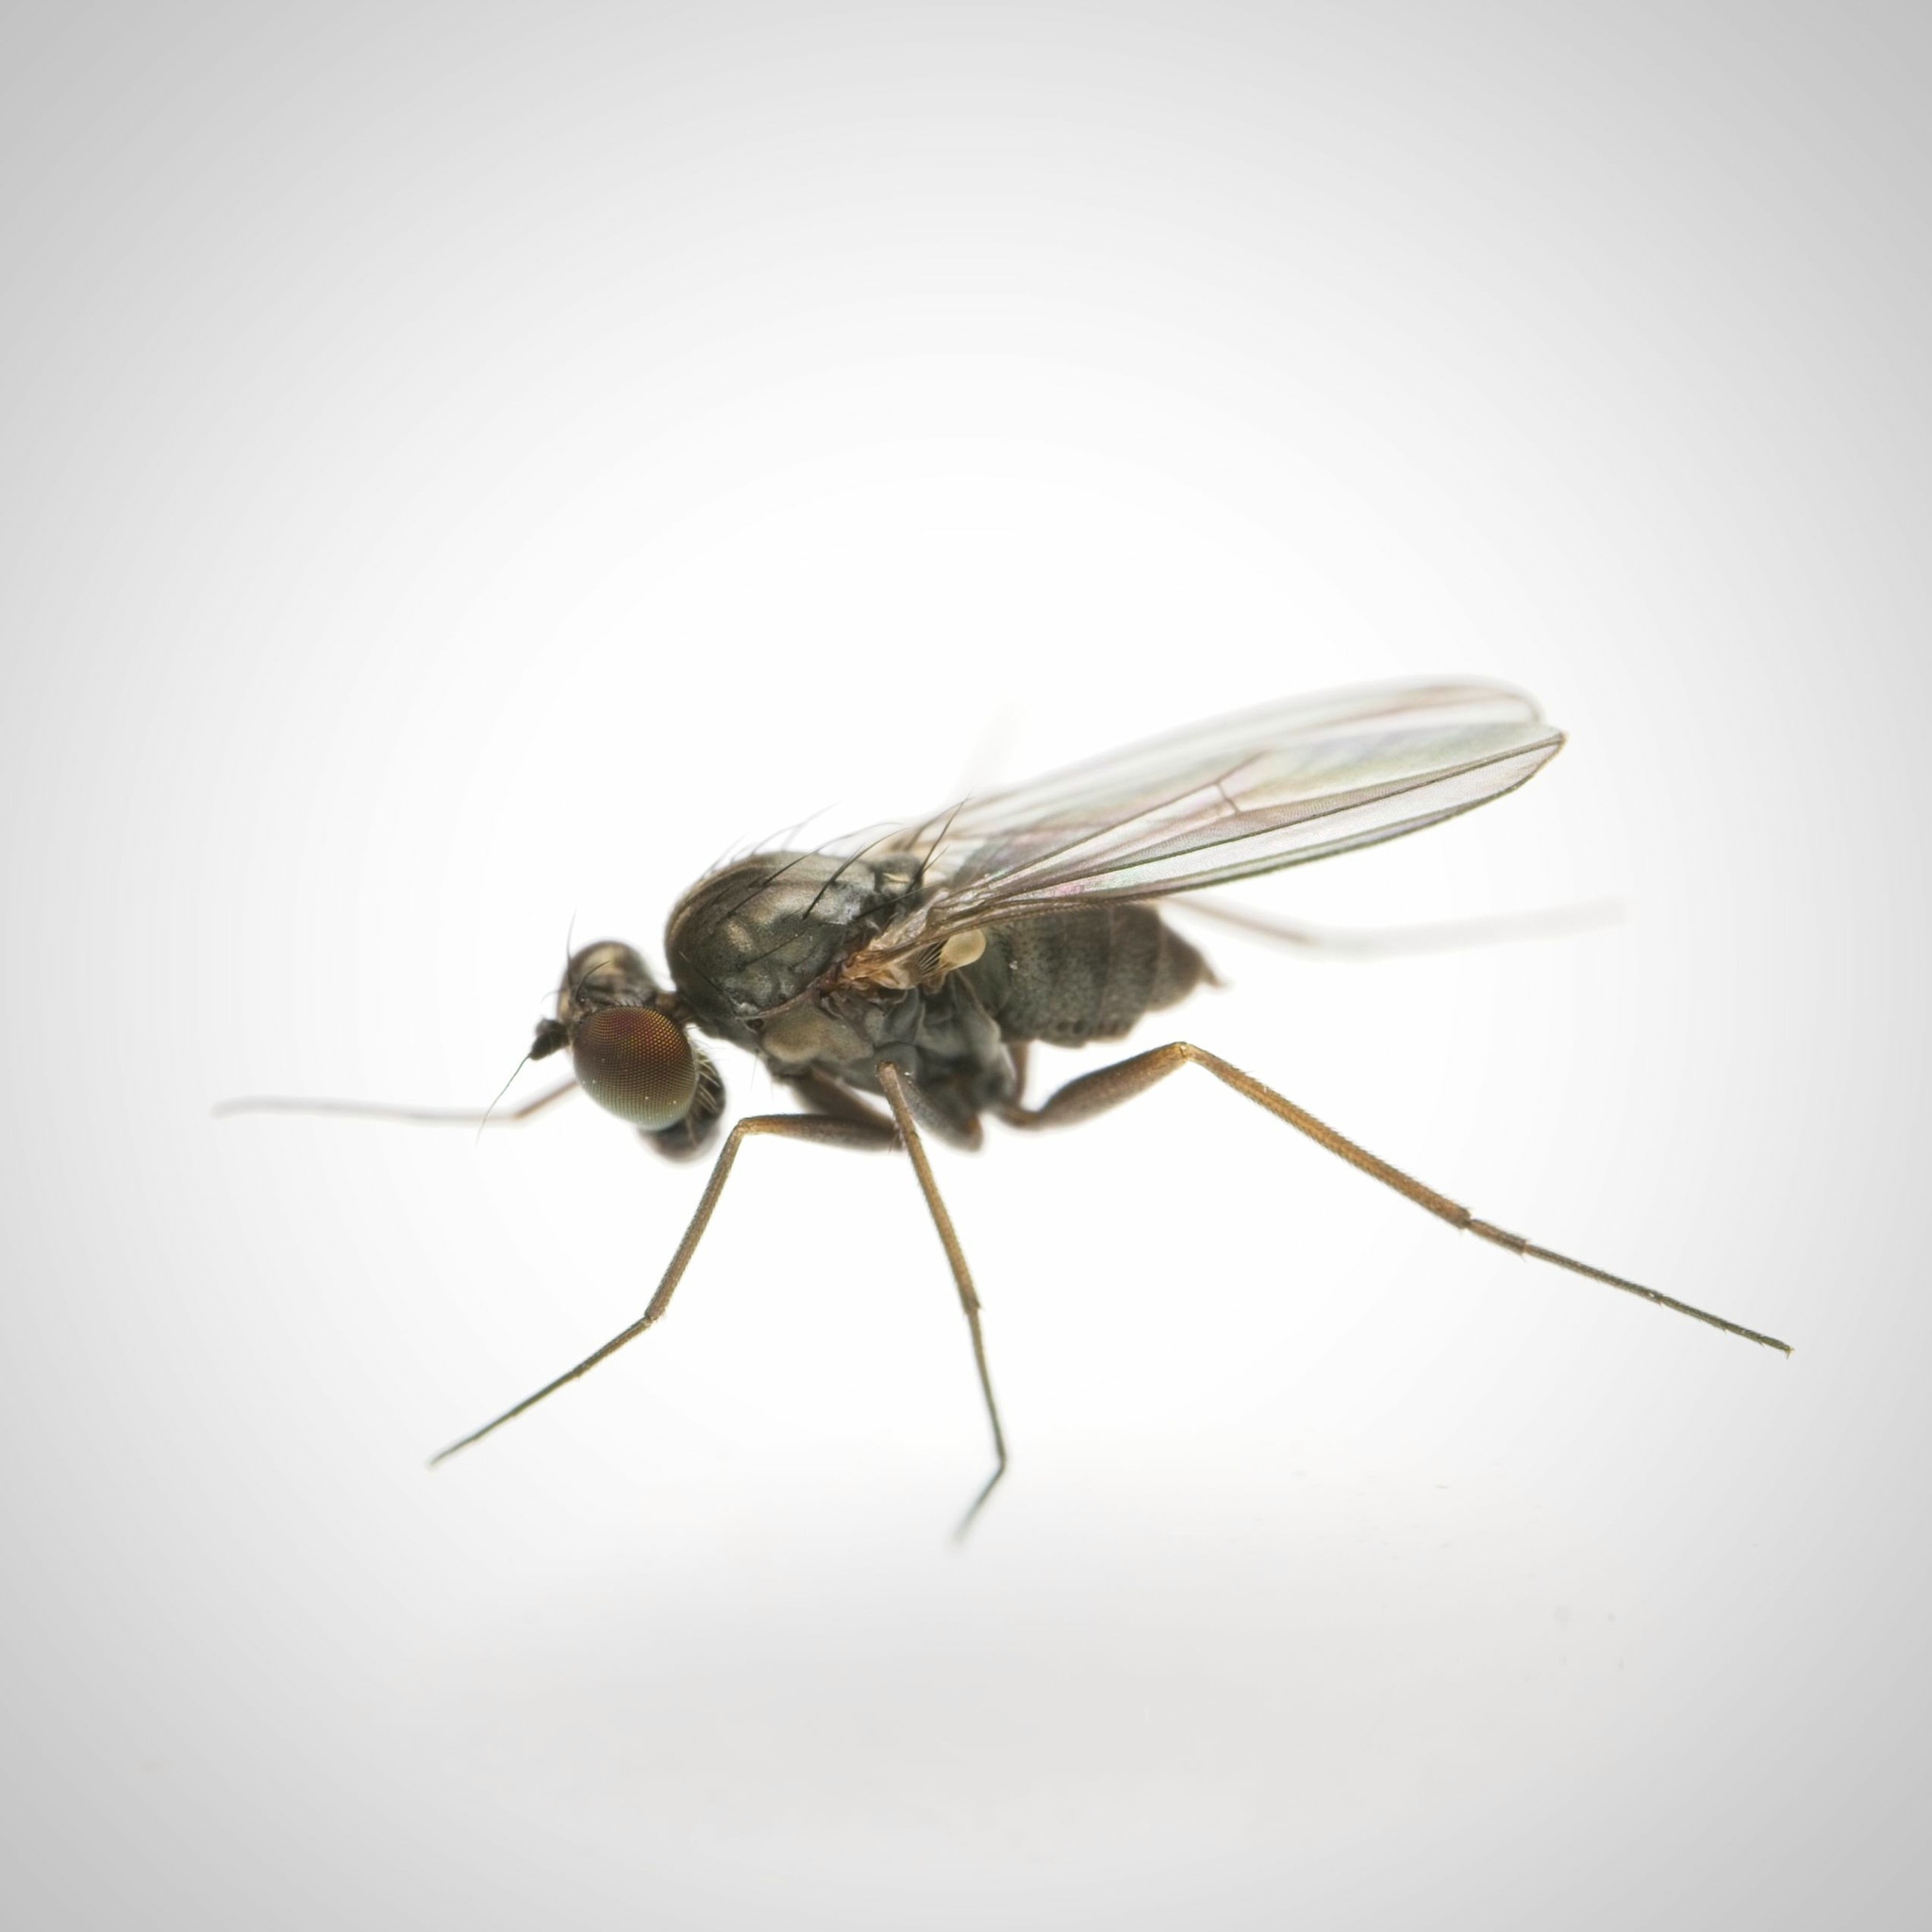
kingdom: Animalia
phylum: Arthropoda
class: Insecta
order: Diptera
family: Dolichopodidae
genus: Medetera
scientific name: Medetera grisescens
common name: Fly
